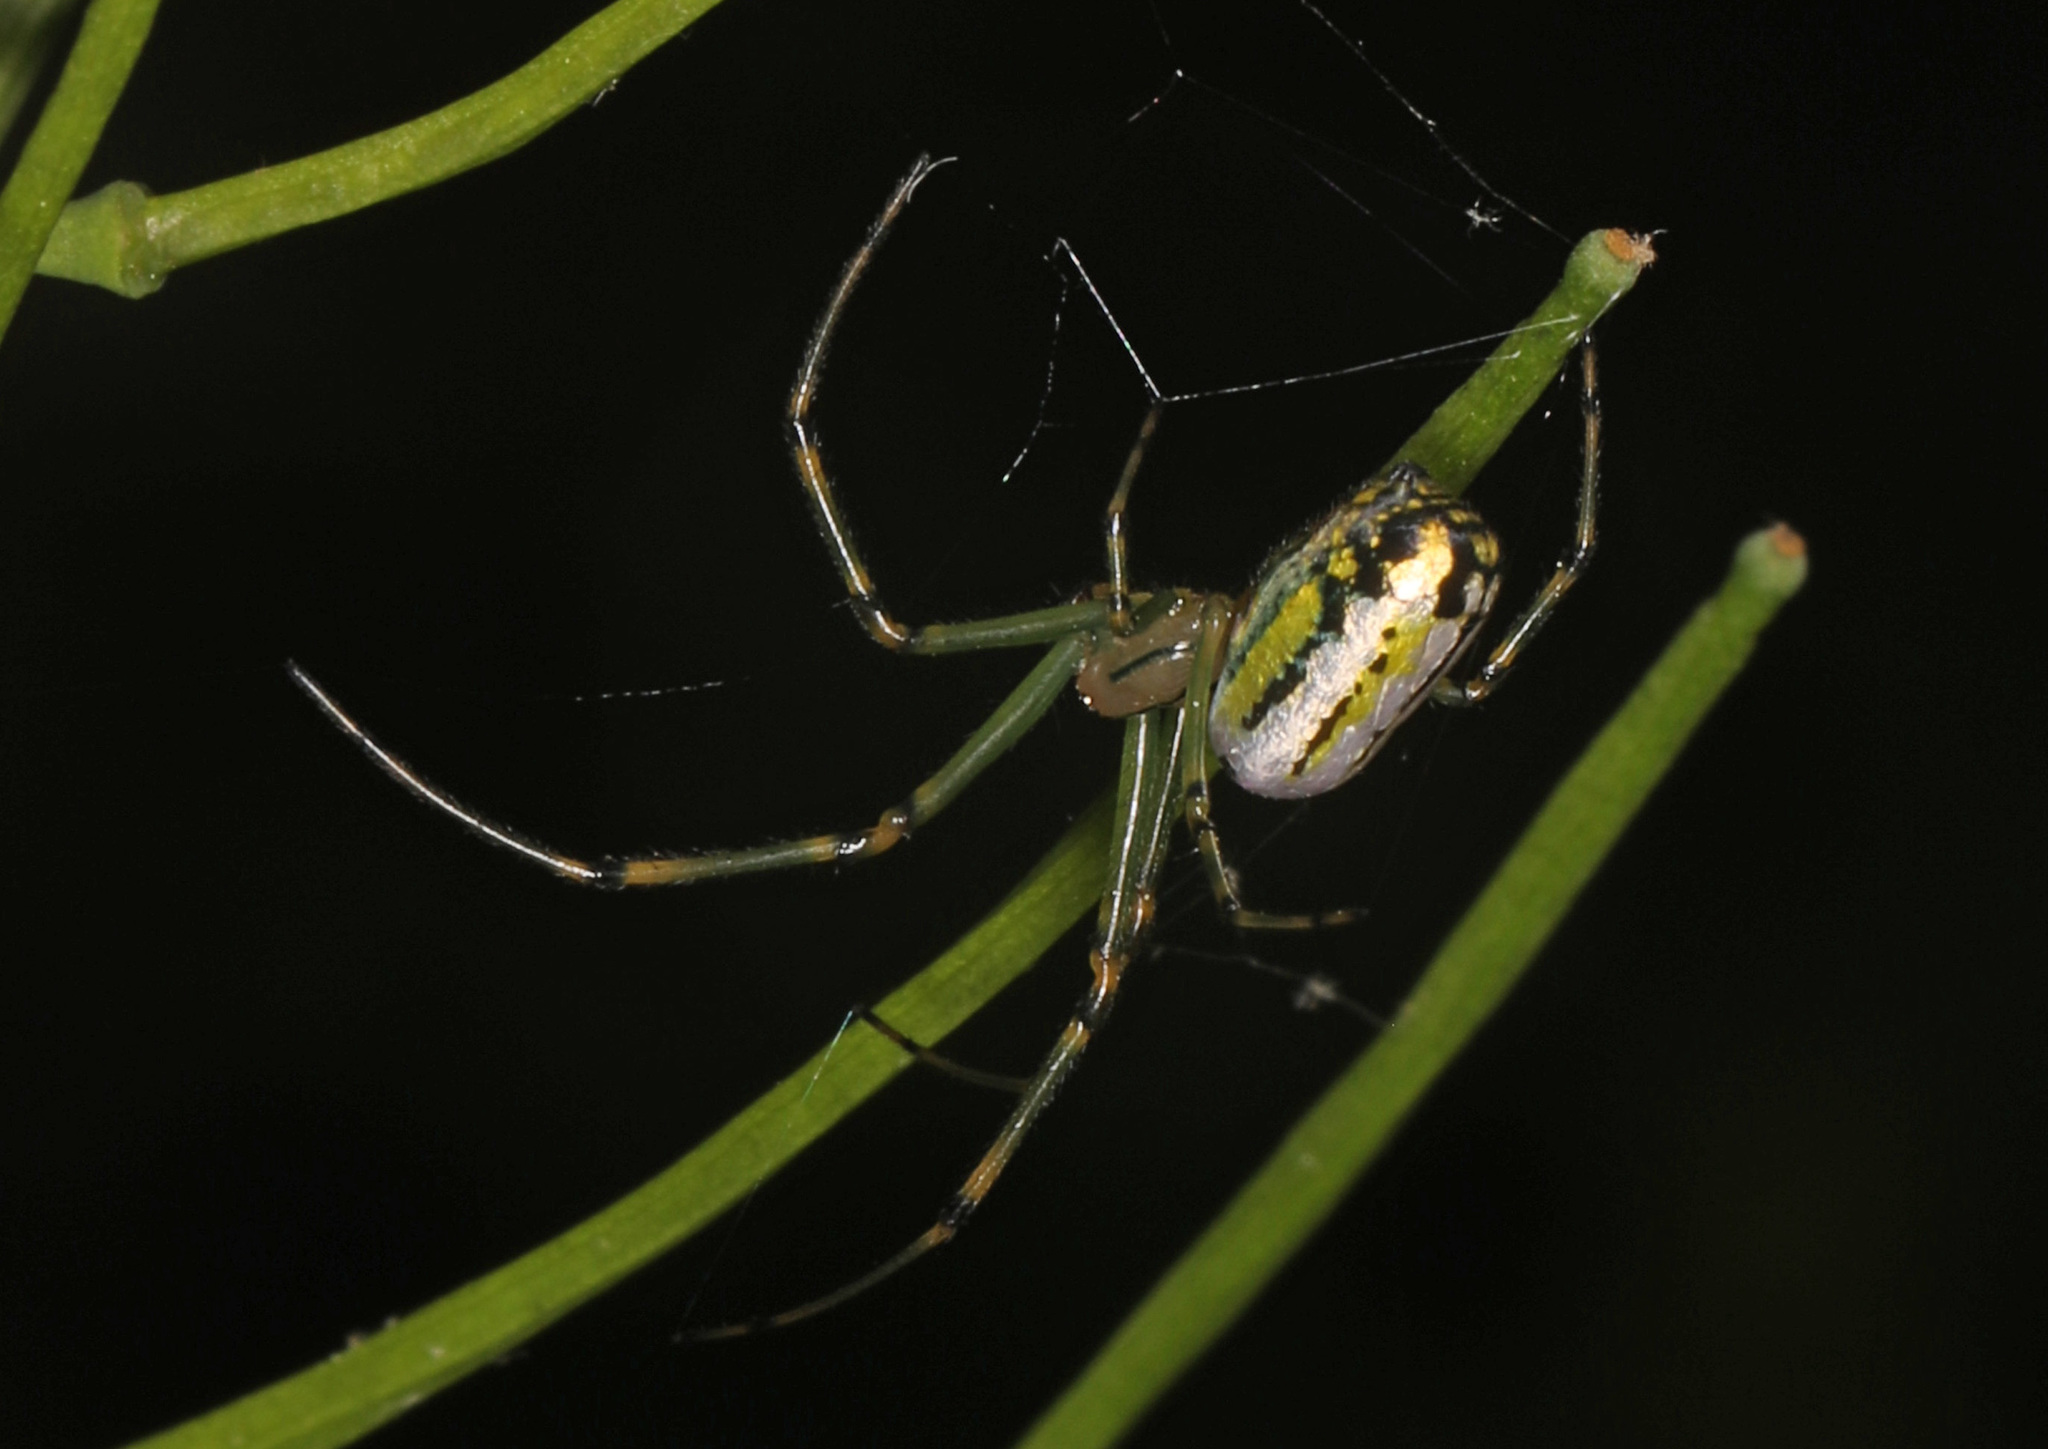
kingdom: Animalia
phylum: Arthropoda
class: Arachnida
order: Araneae
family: Tetragnathidae
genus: Leucauge
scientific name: Leucauge venusta
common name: Longjawed orb weavers
